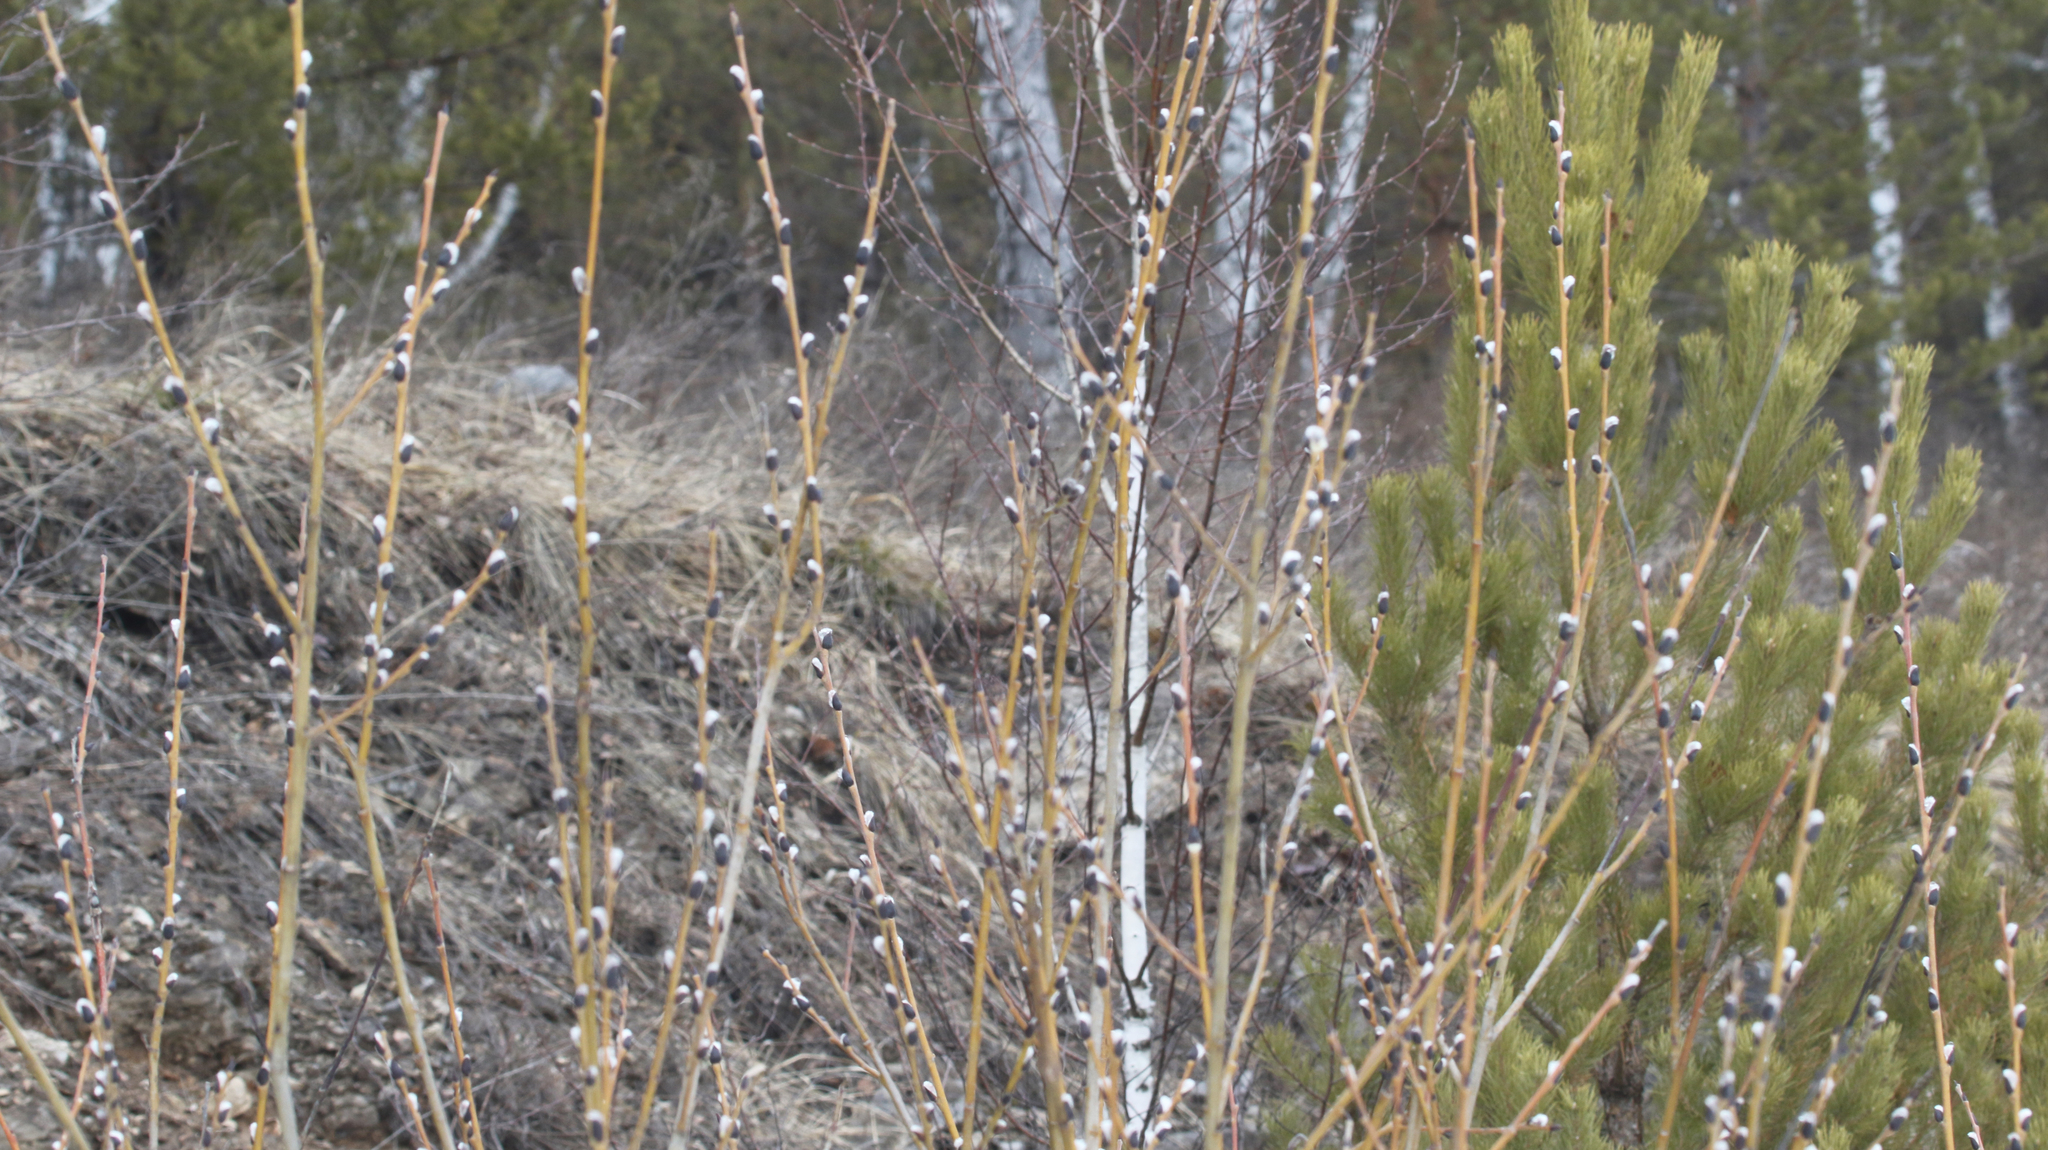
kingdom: Plantae
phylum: Tracheophyta
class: Magnoliopsida
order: Malpighiales
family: Salicaceae
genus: Salix
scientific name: Salix caprea
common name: Goat willow
